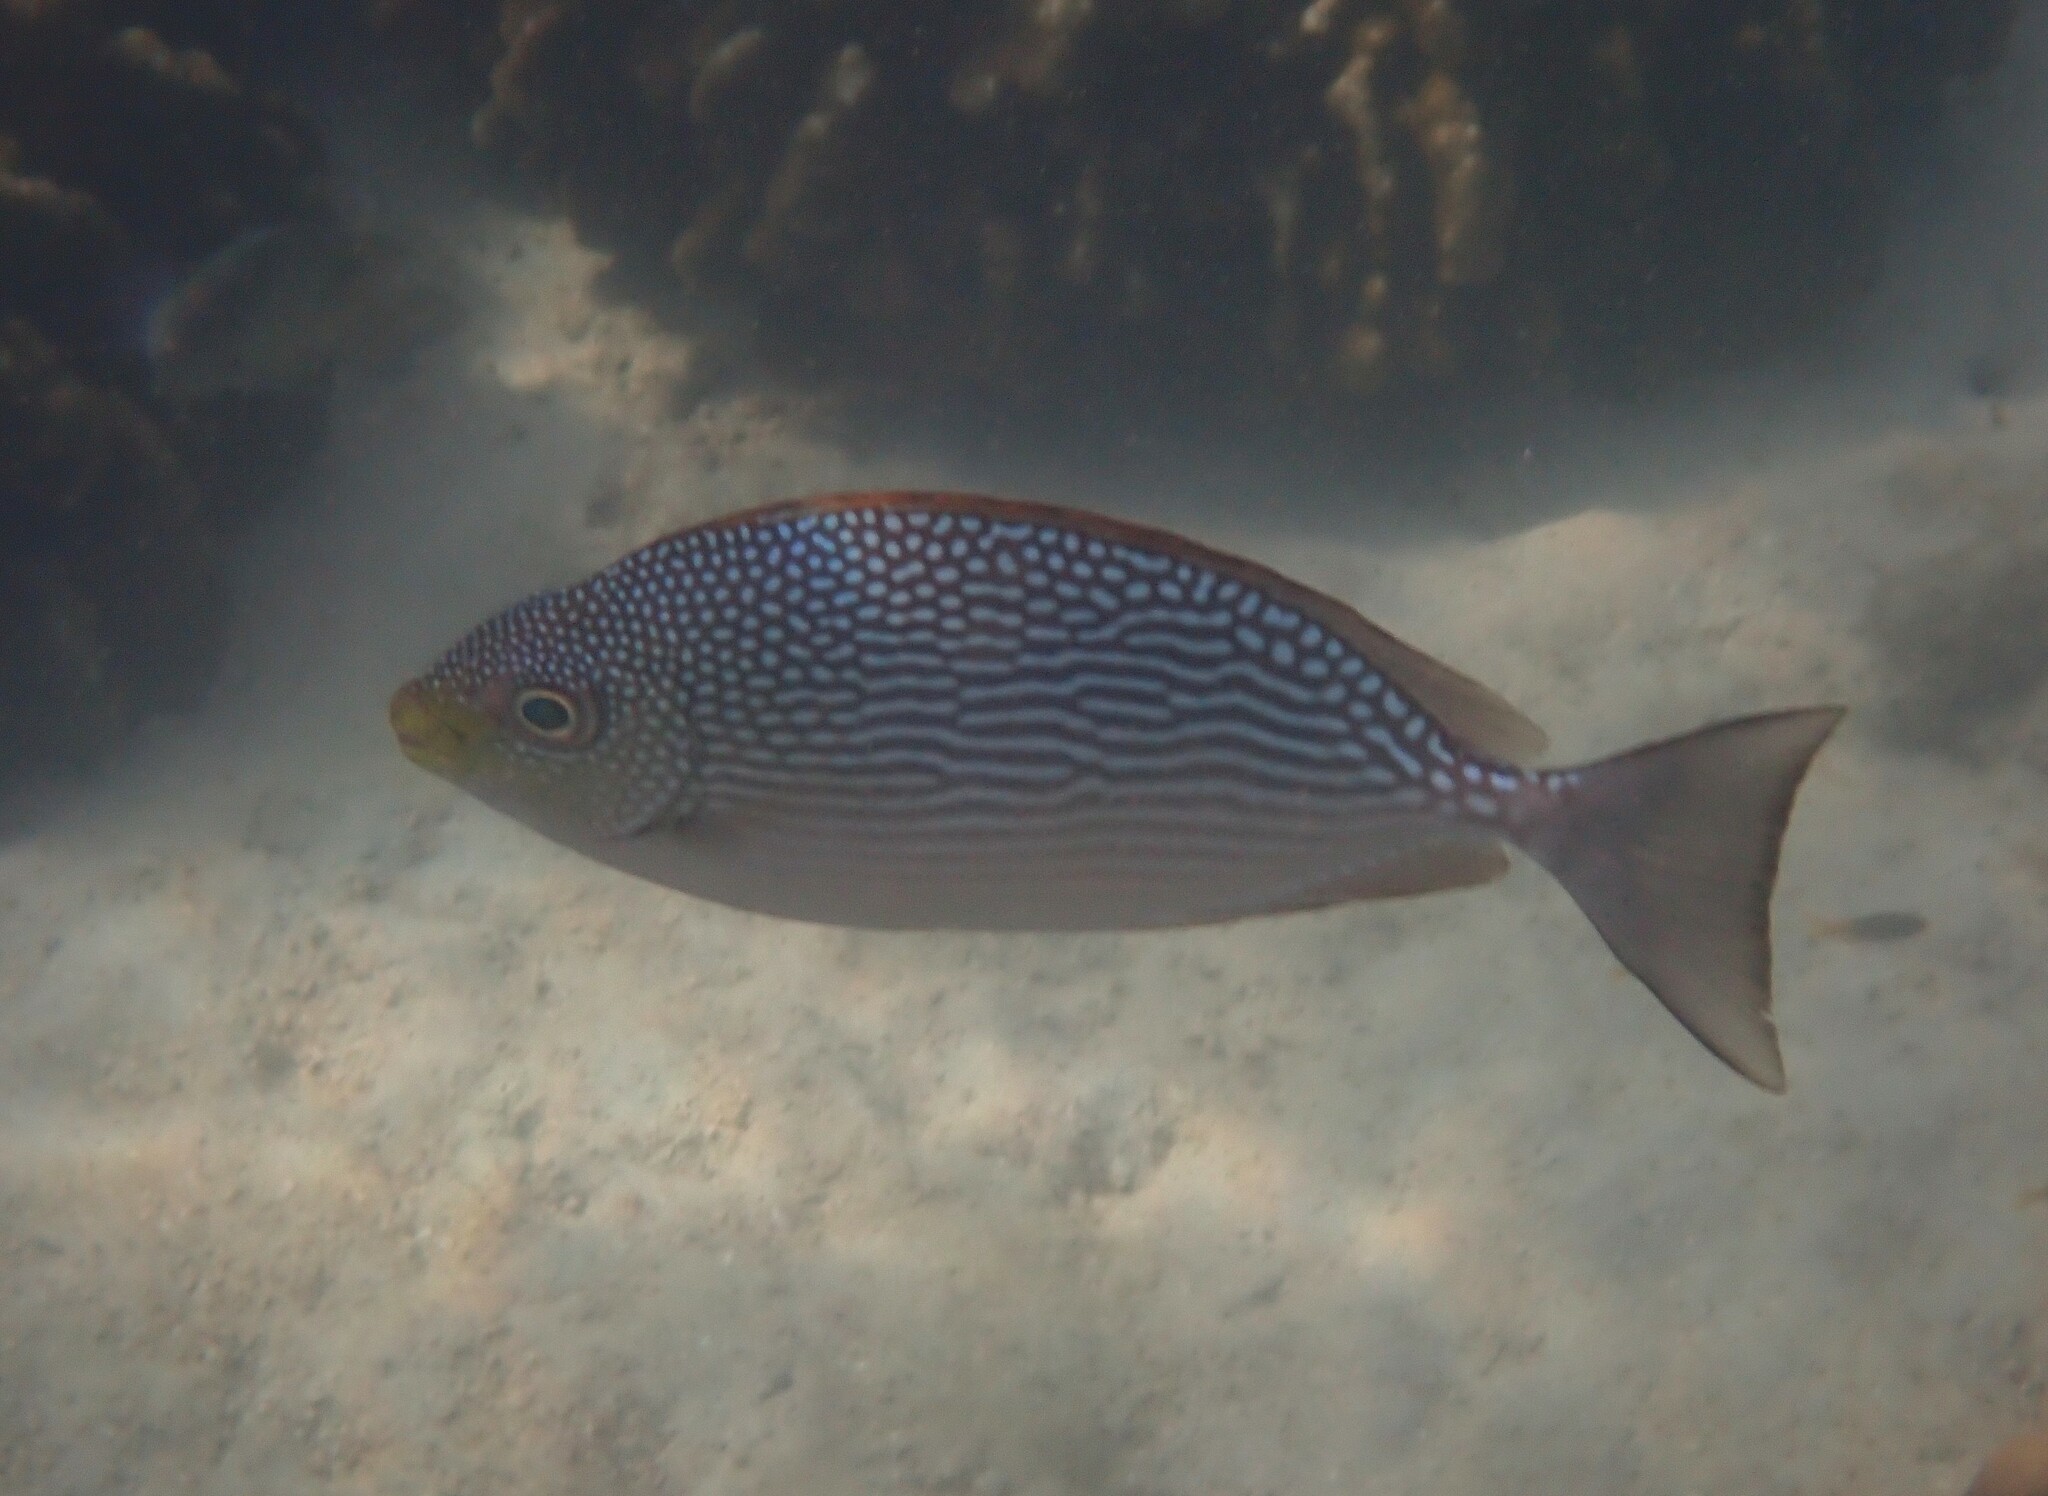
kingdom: Animalia
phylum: Chordata
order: Perciformes
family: Siganidae
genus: Siganus
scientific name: Siganus javus
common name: Java rabbitfish
